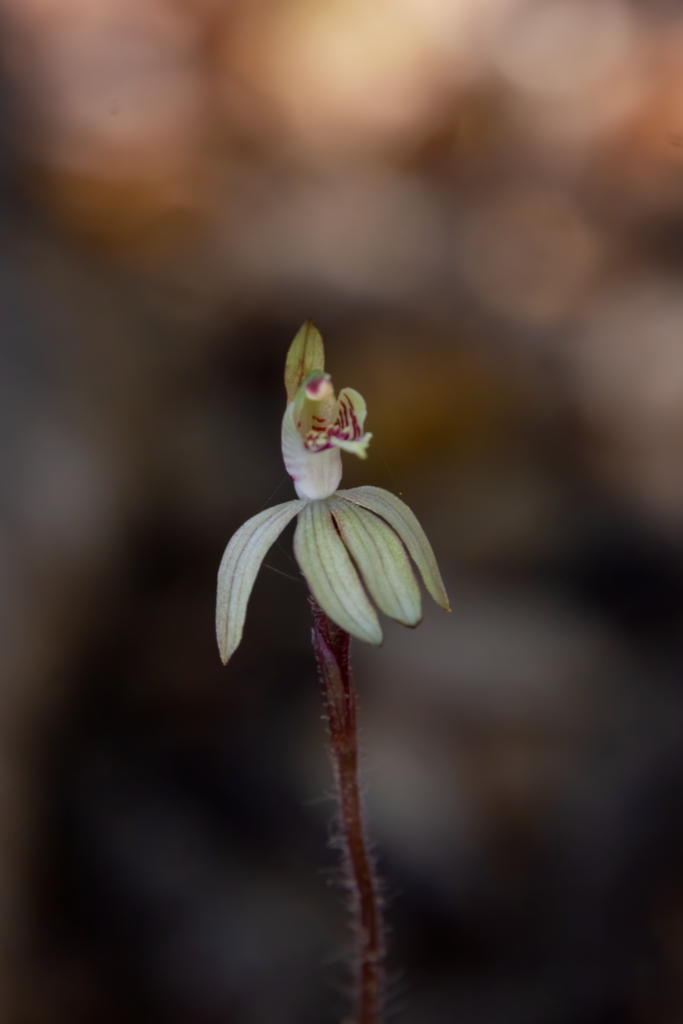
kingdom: Plantae
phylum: Tracheophyta
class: Liliopsida
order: Asparagales
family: Orchidaceae
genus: Caladenia
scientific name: Caladenia chlorostyla
